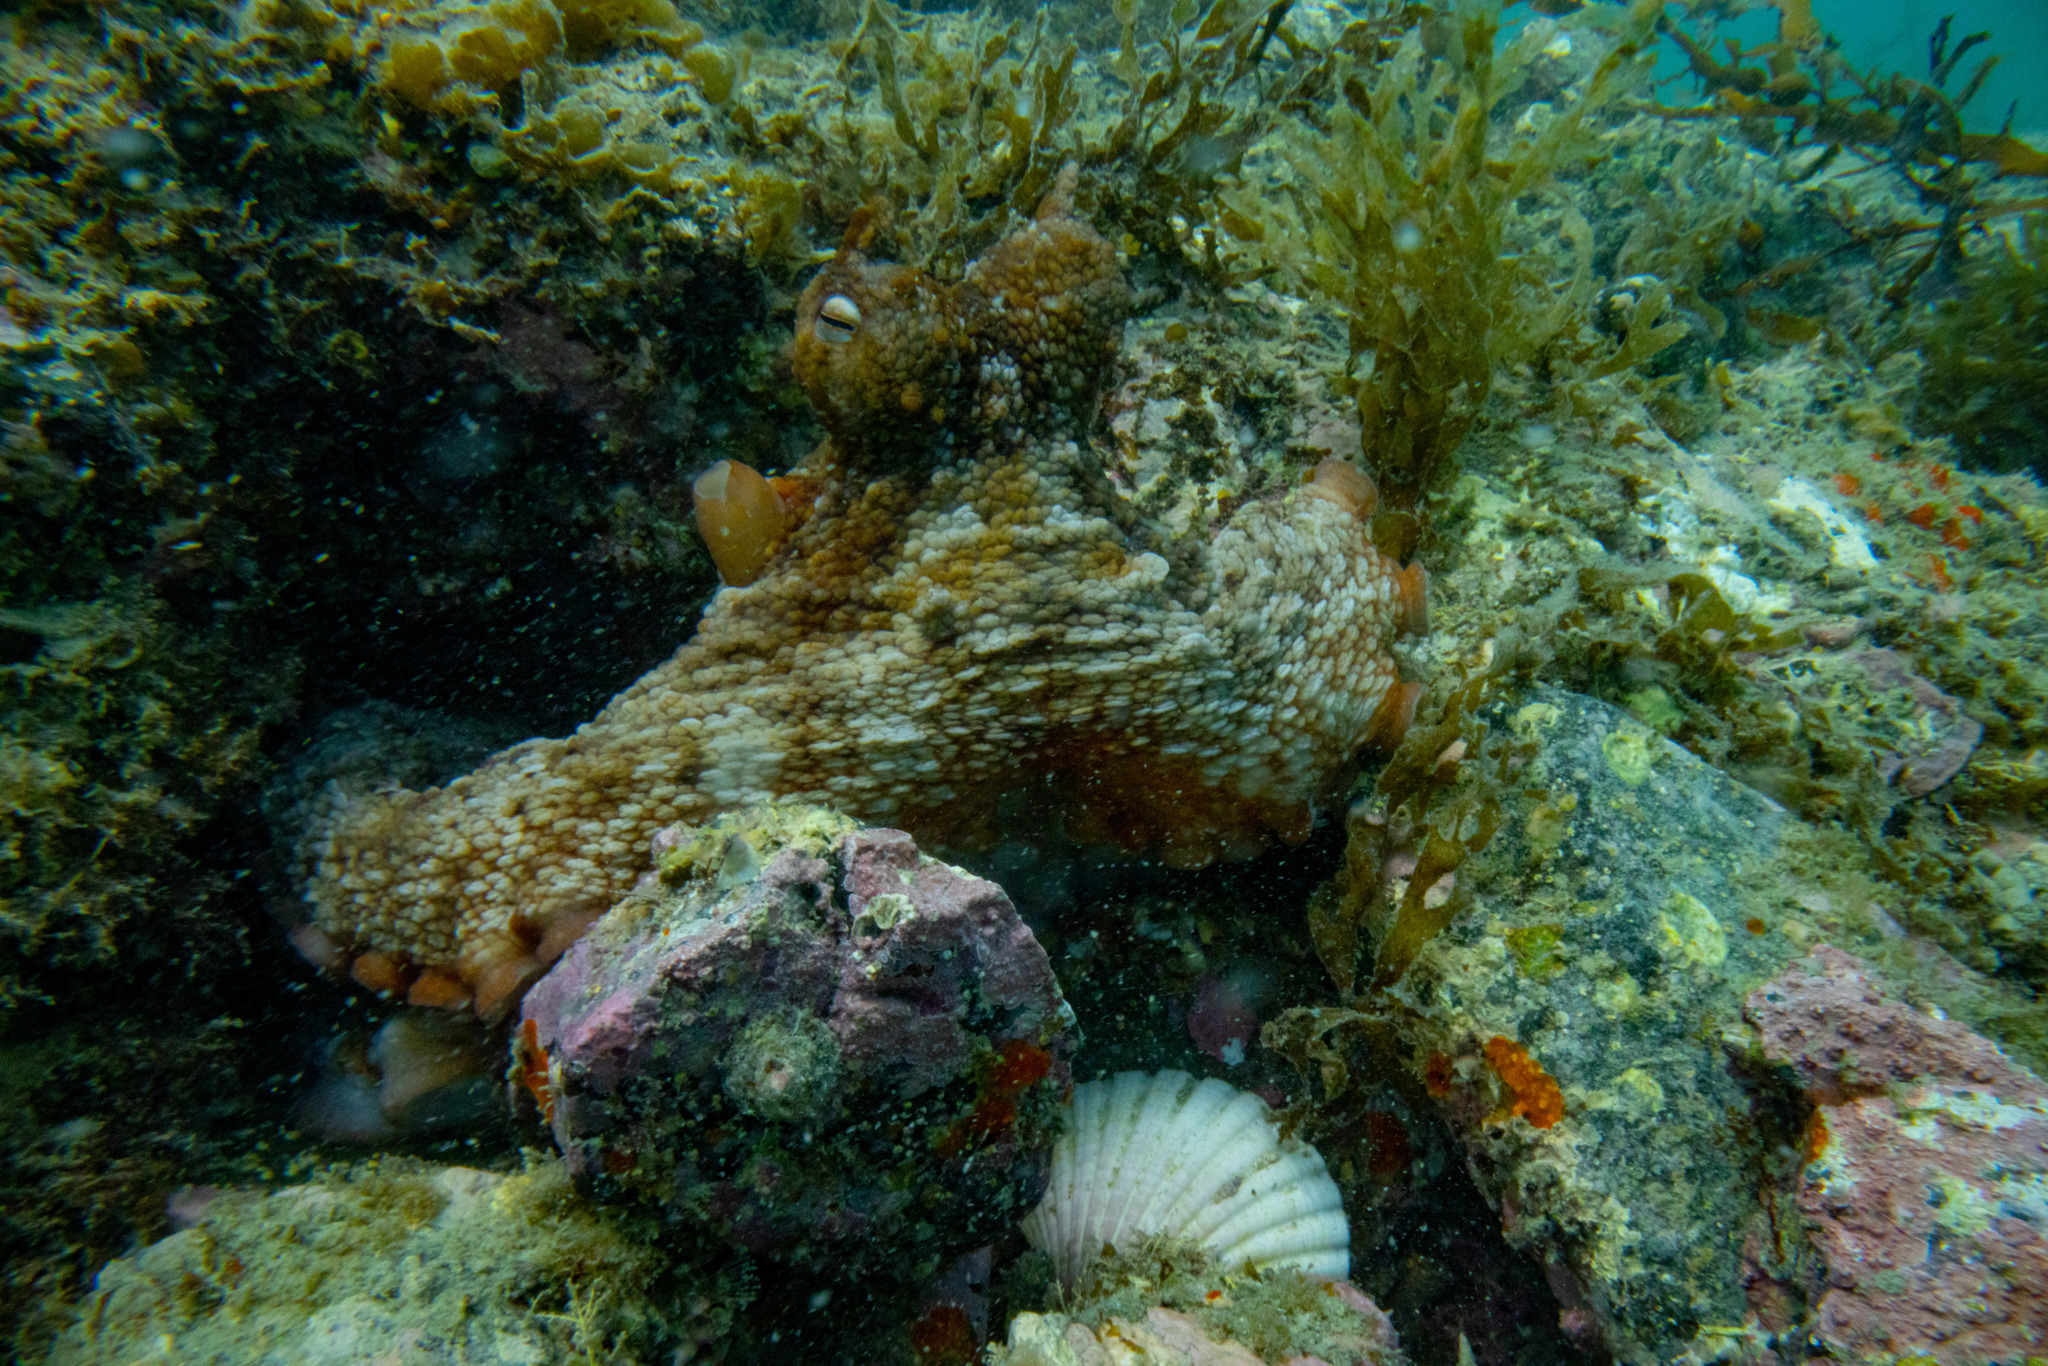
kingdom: Animalia
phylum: Mollusca
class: Cephalopoda
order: Octopoda
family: Octopodidae
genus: Octopus
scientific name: Octopus tetricus
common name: Sydney octopus
